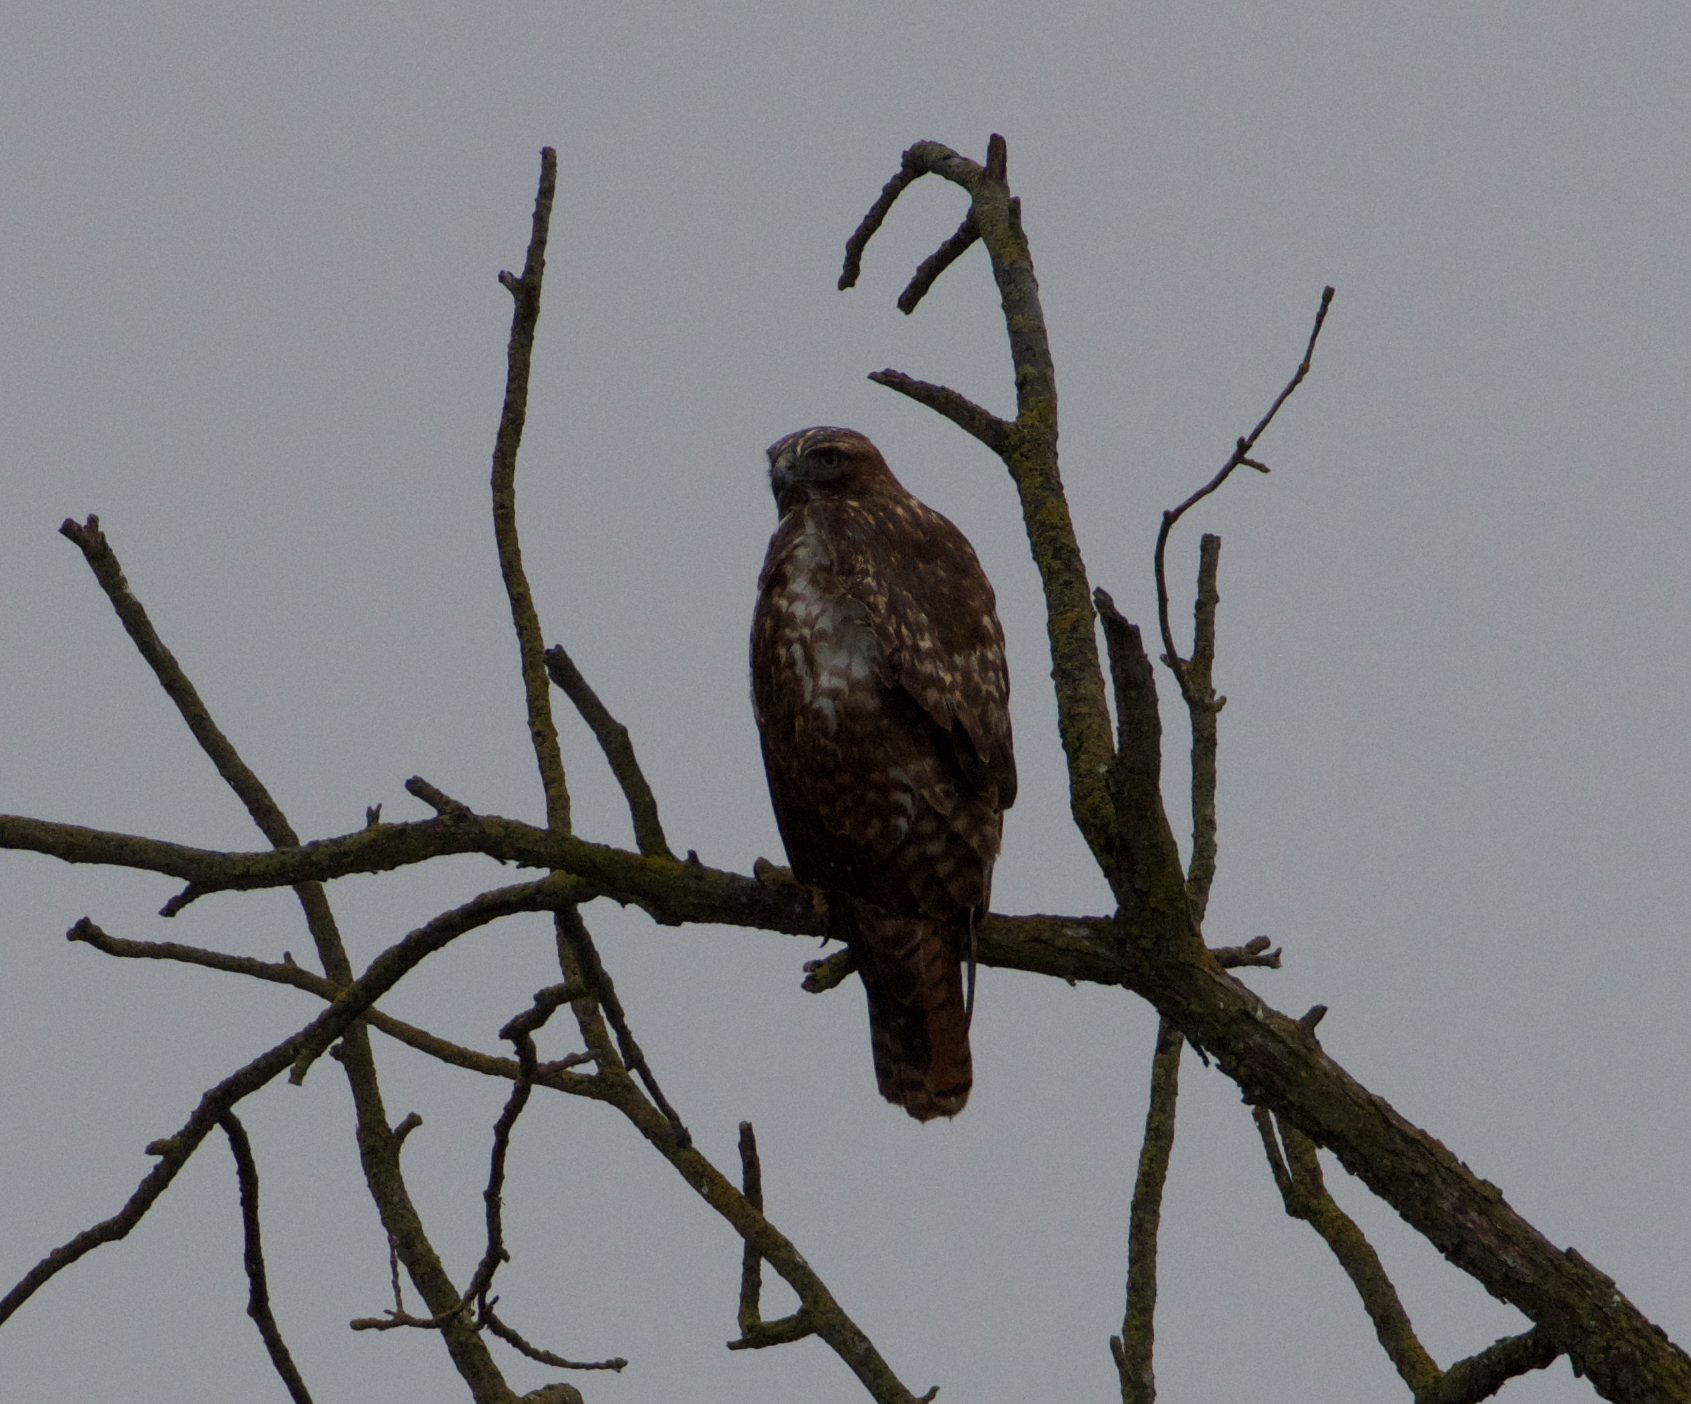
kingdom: Animalia
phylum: Chordata
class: Aves
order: Accipitriformes
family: Accipitridae
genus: Buteo
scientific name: Buteo jamaicensis
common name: Red-tailed hawk
